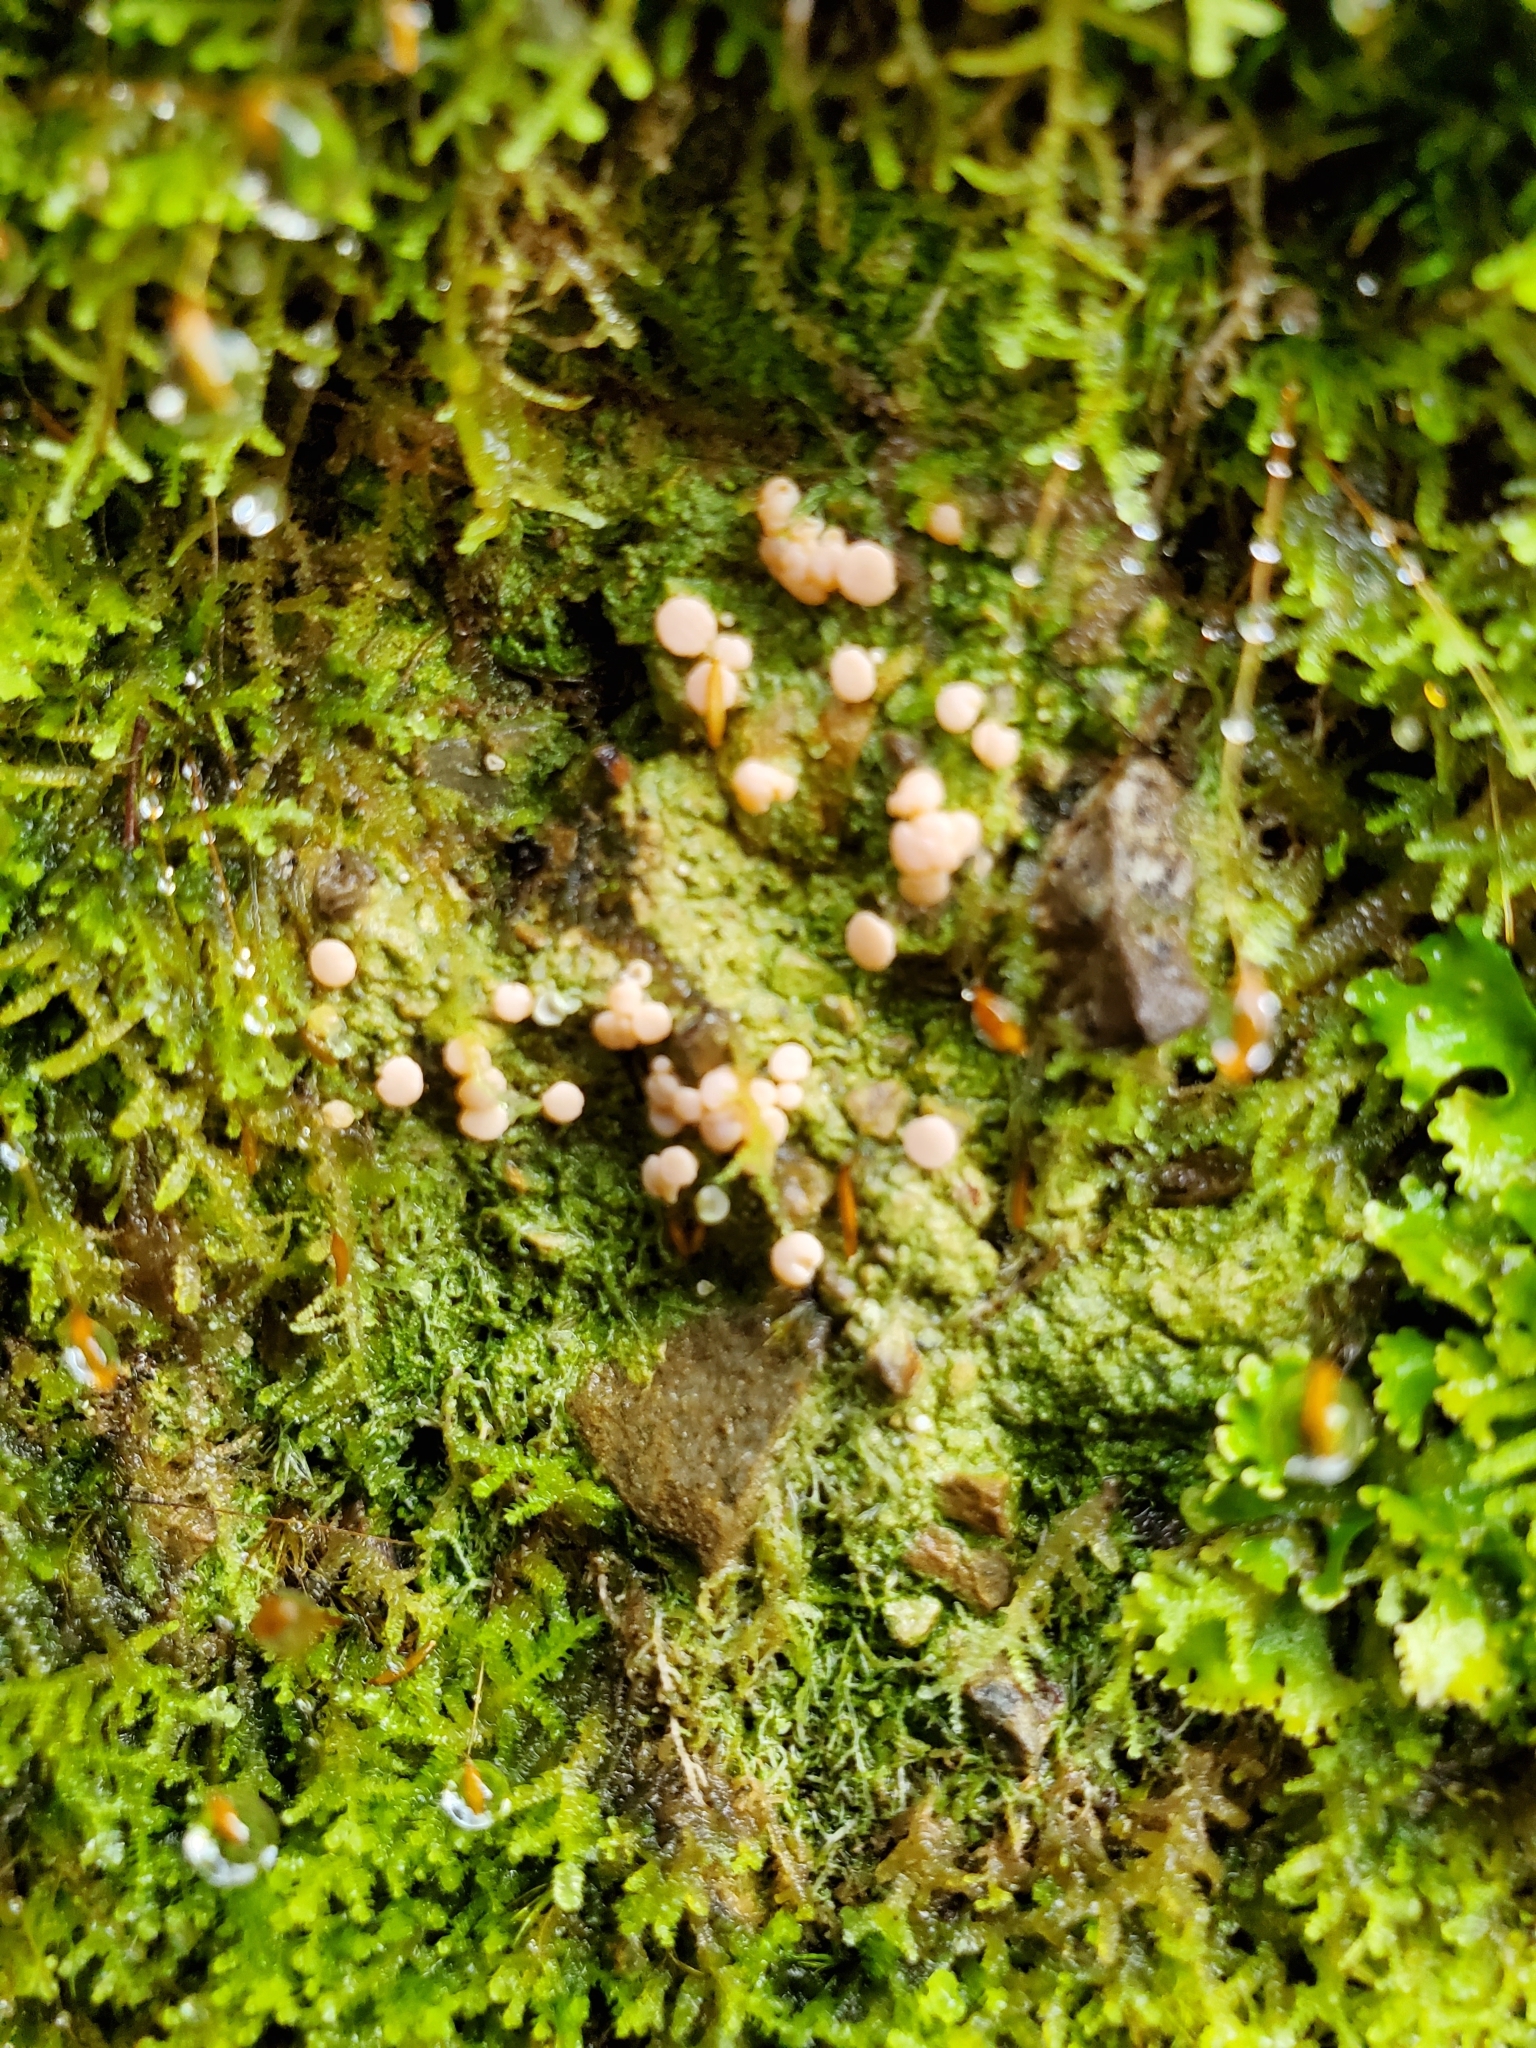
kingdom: Fungi
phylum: Ascomycota
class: Lecanoromycetes
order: Baeomycetales
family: Baeomycetaceae
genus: Baeomyces
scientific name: Baeomyces heteromorphus
